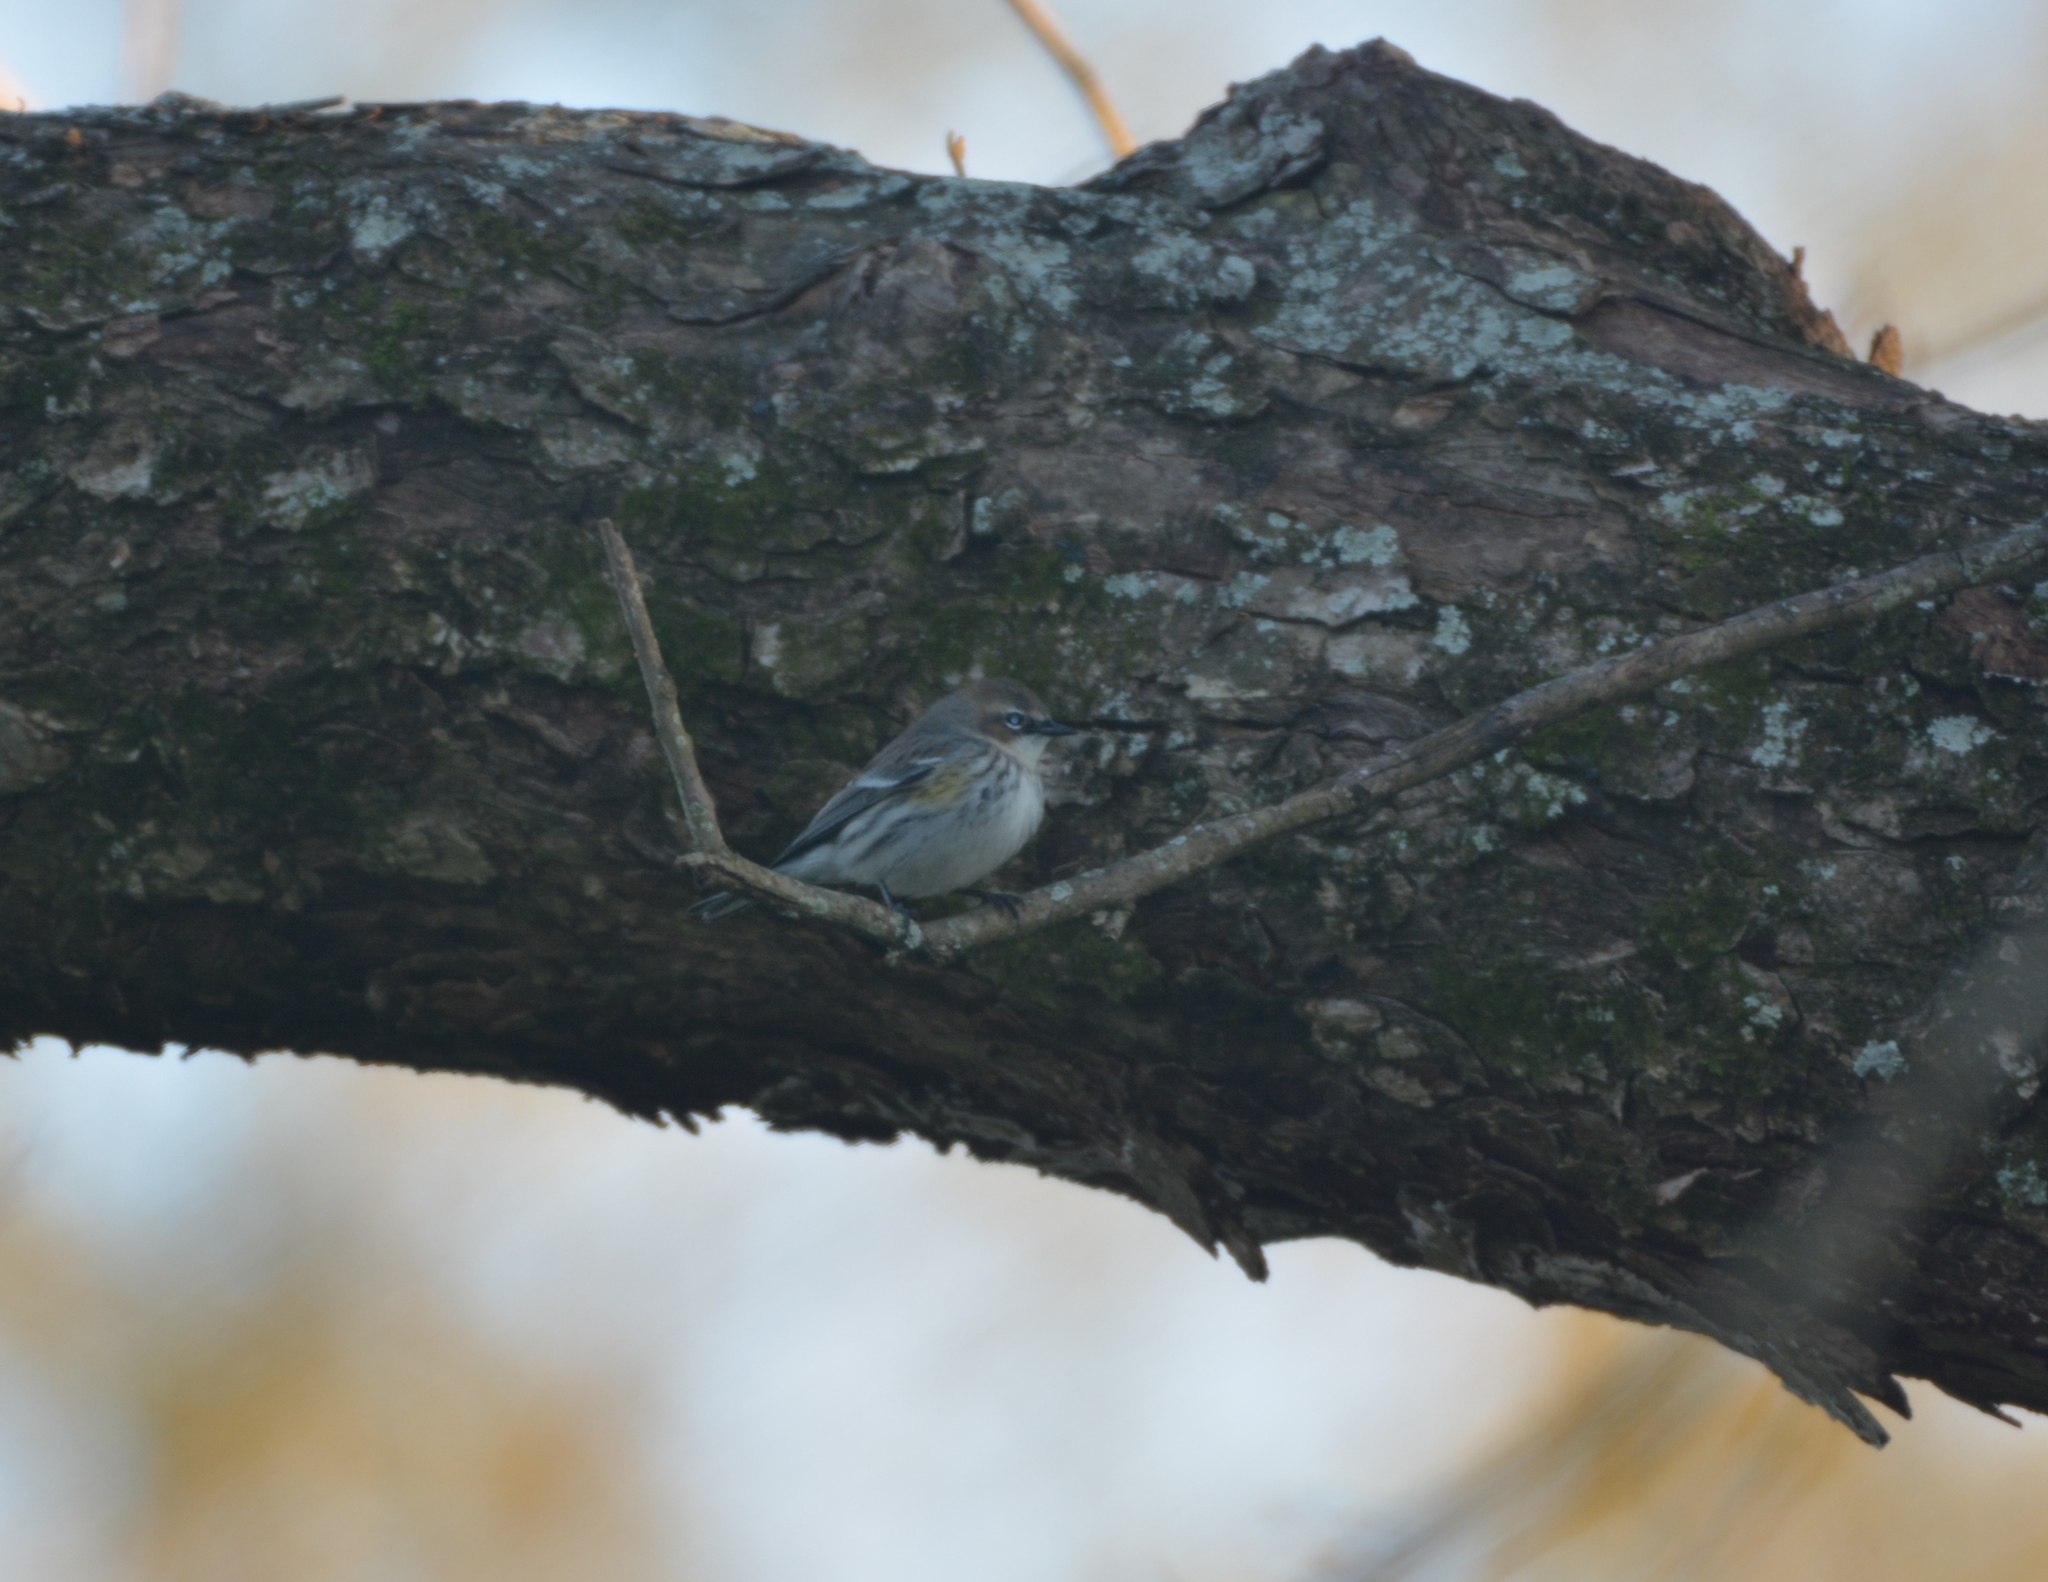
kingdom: Animalia
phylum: Chordata
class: Aves
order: Passeriformes
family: Parulidae
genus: Setophaga
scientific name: Setophaga coronata
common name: Myrtle warbler
